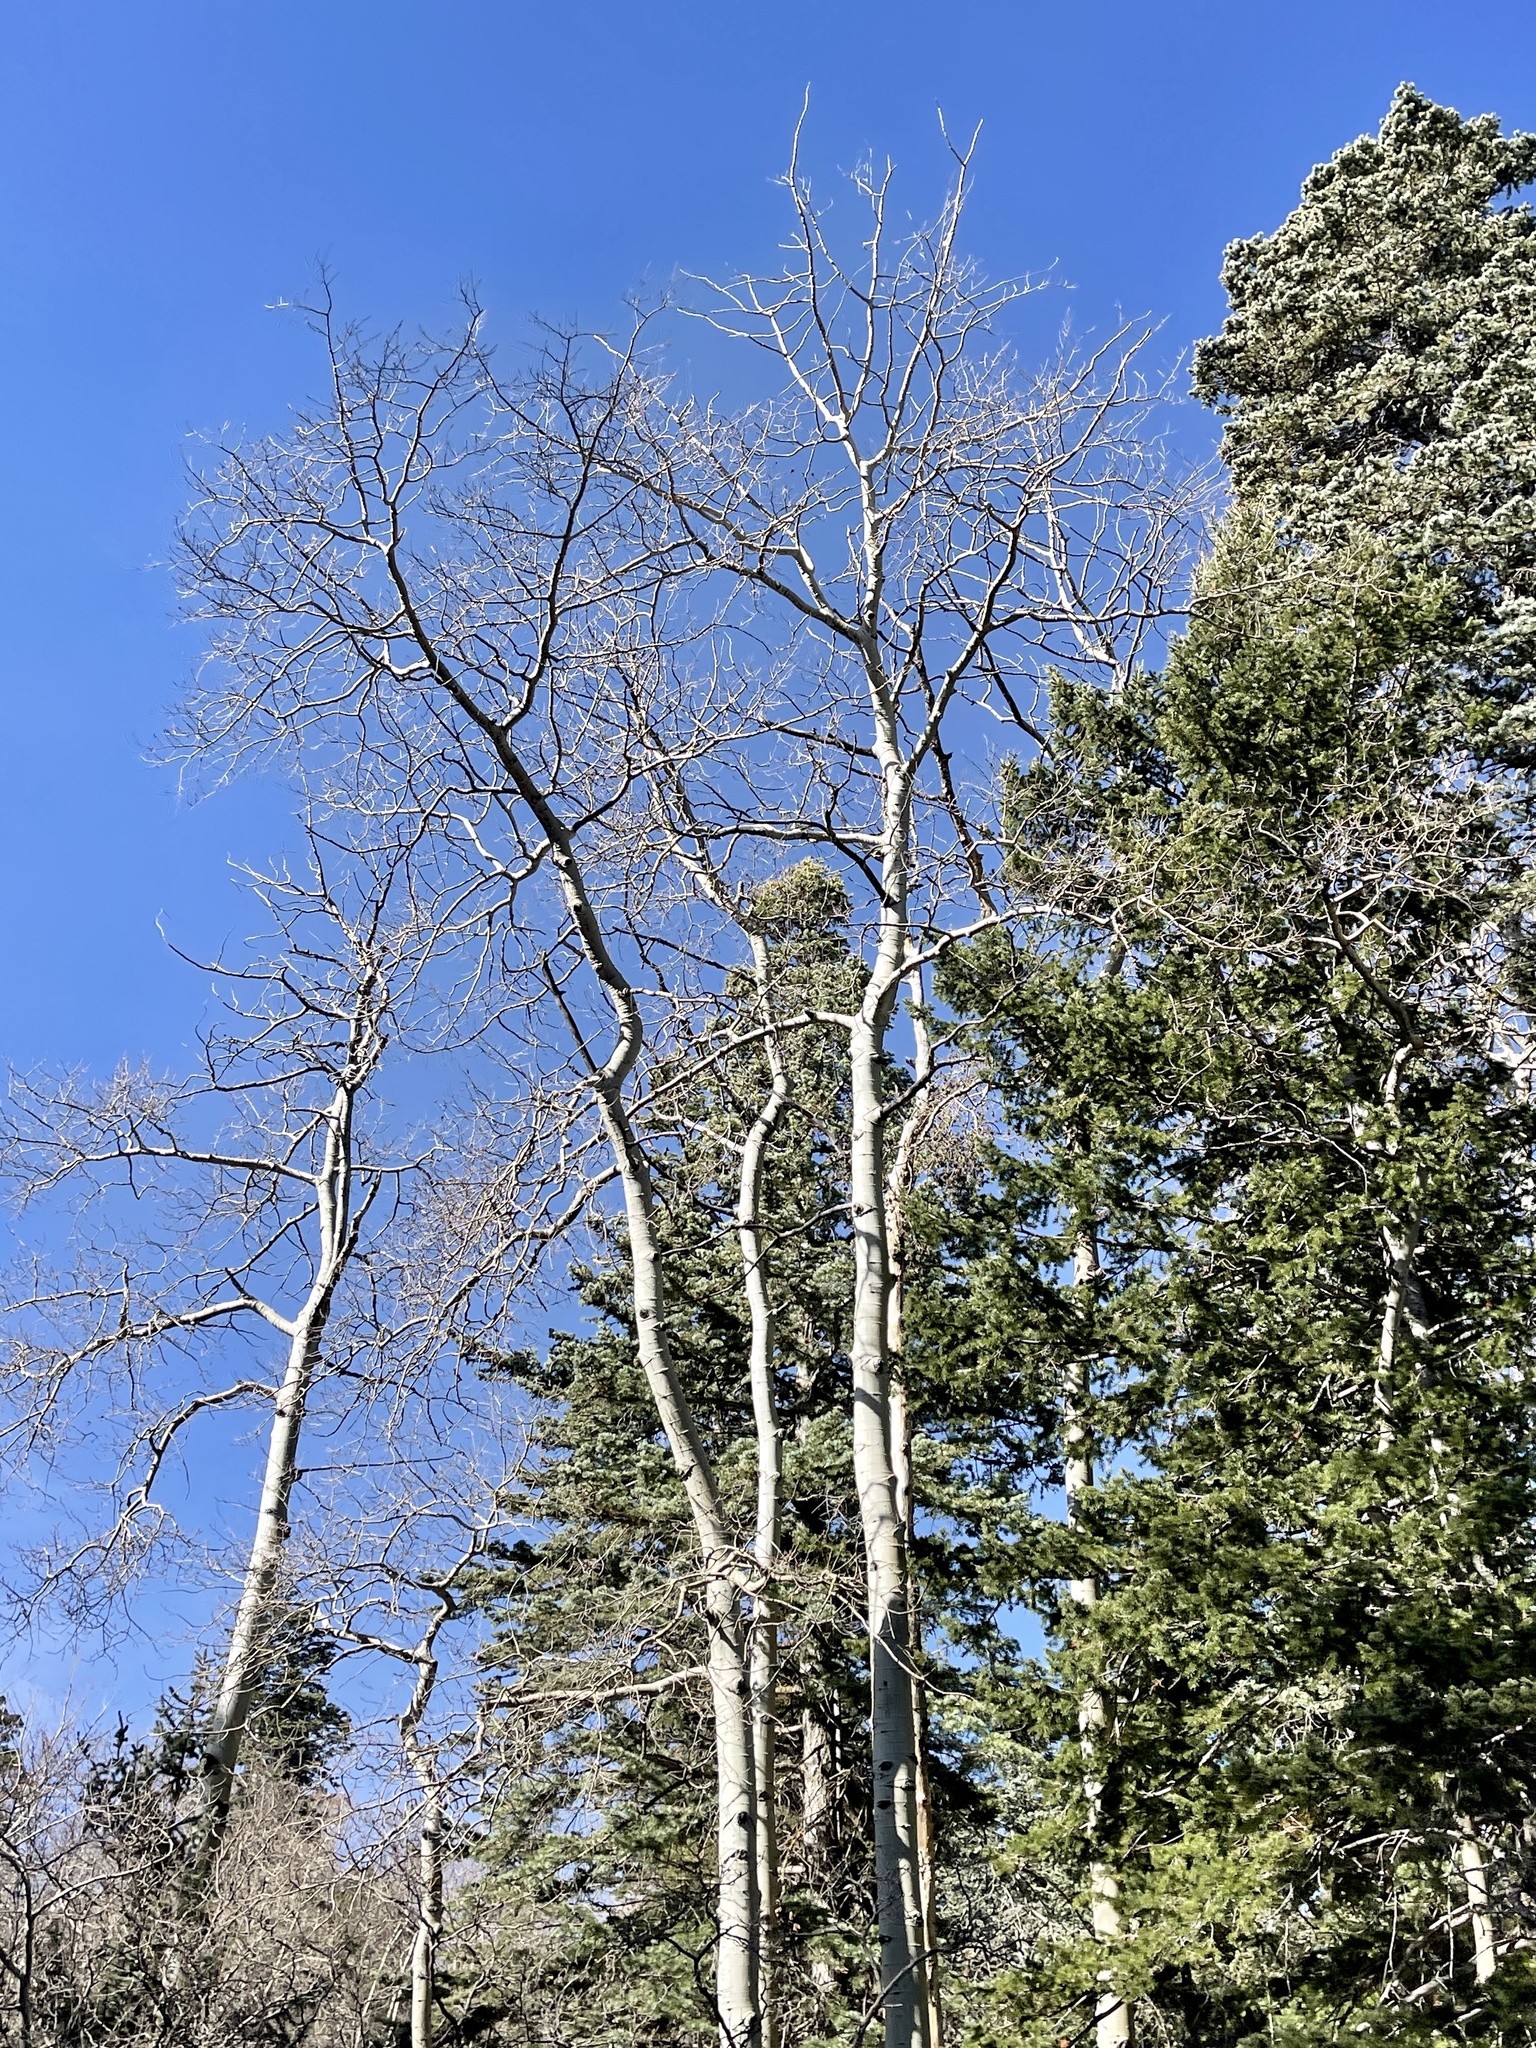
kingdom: Plantae
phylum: Tracheophyta
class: Magnoliopsida
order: Malpighiales
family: Salicaceae
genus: Populus
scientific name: Populus tremuloides
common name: Quaking aspen
